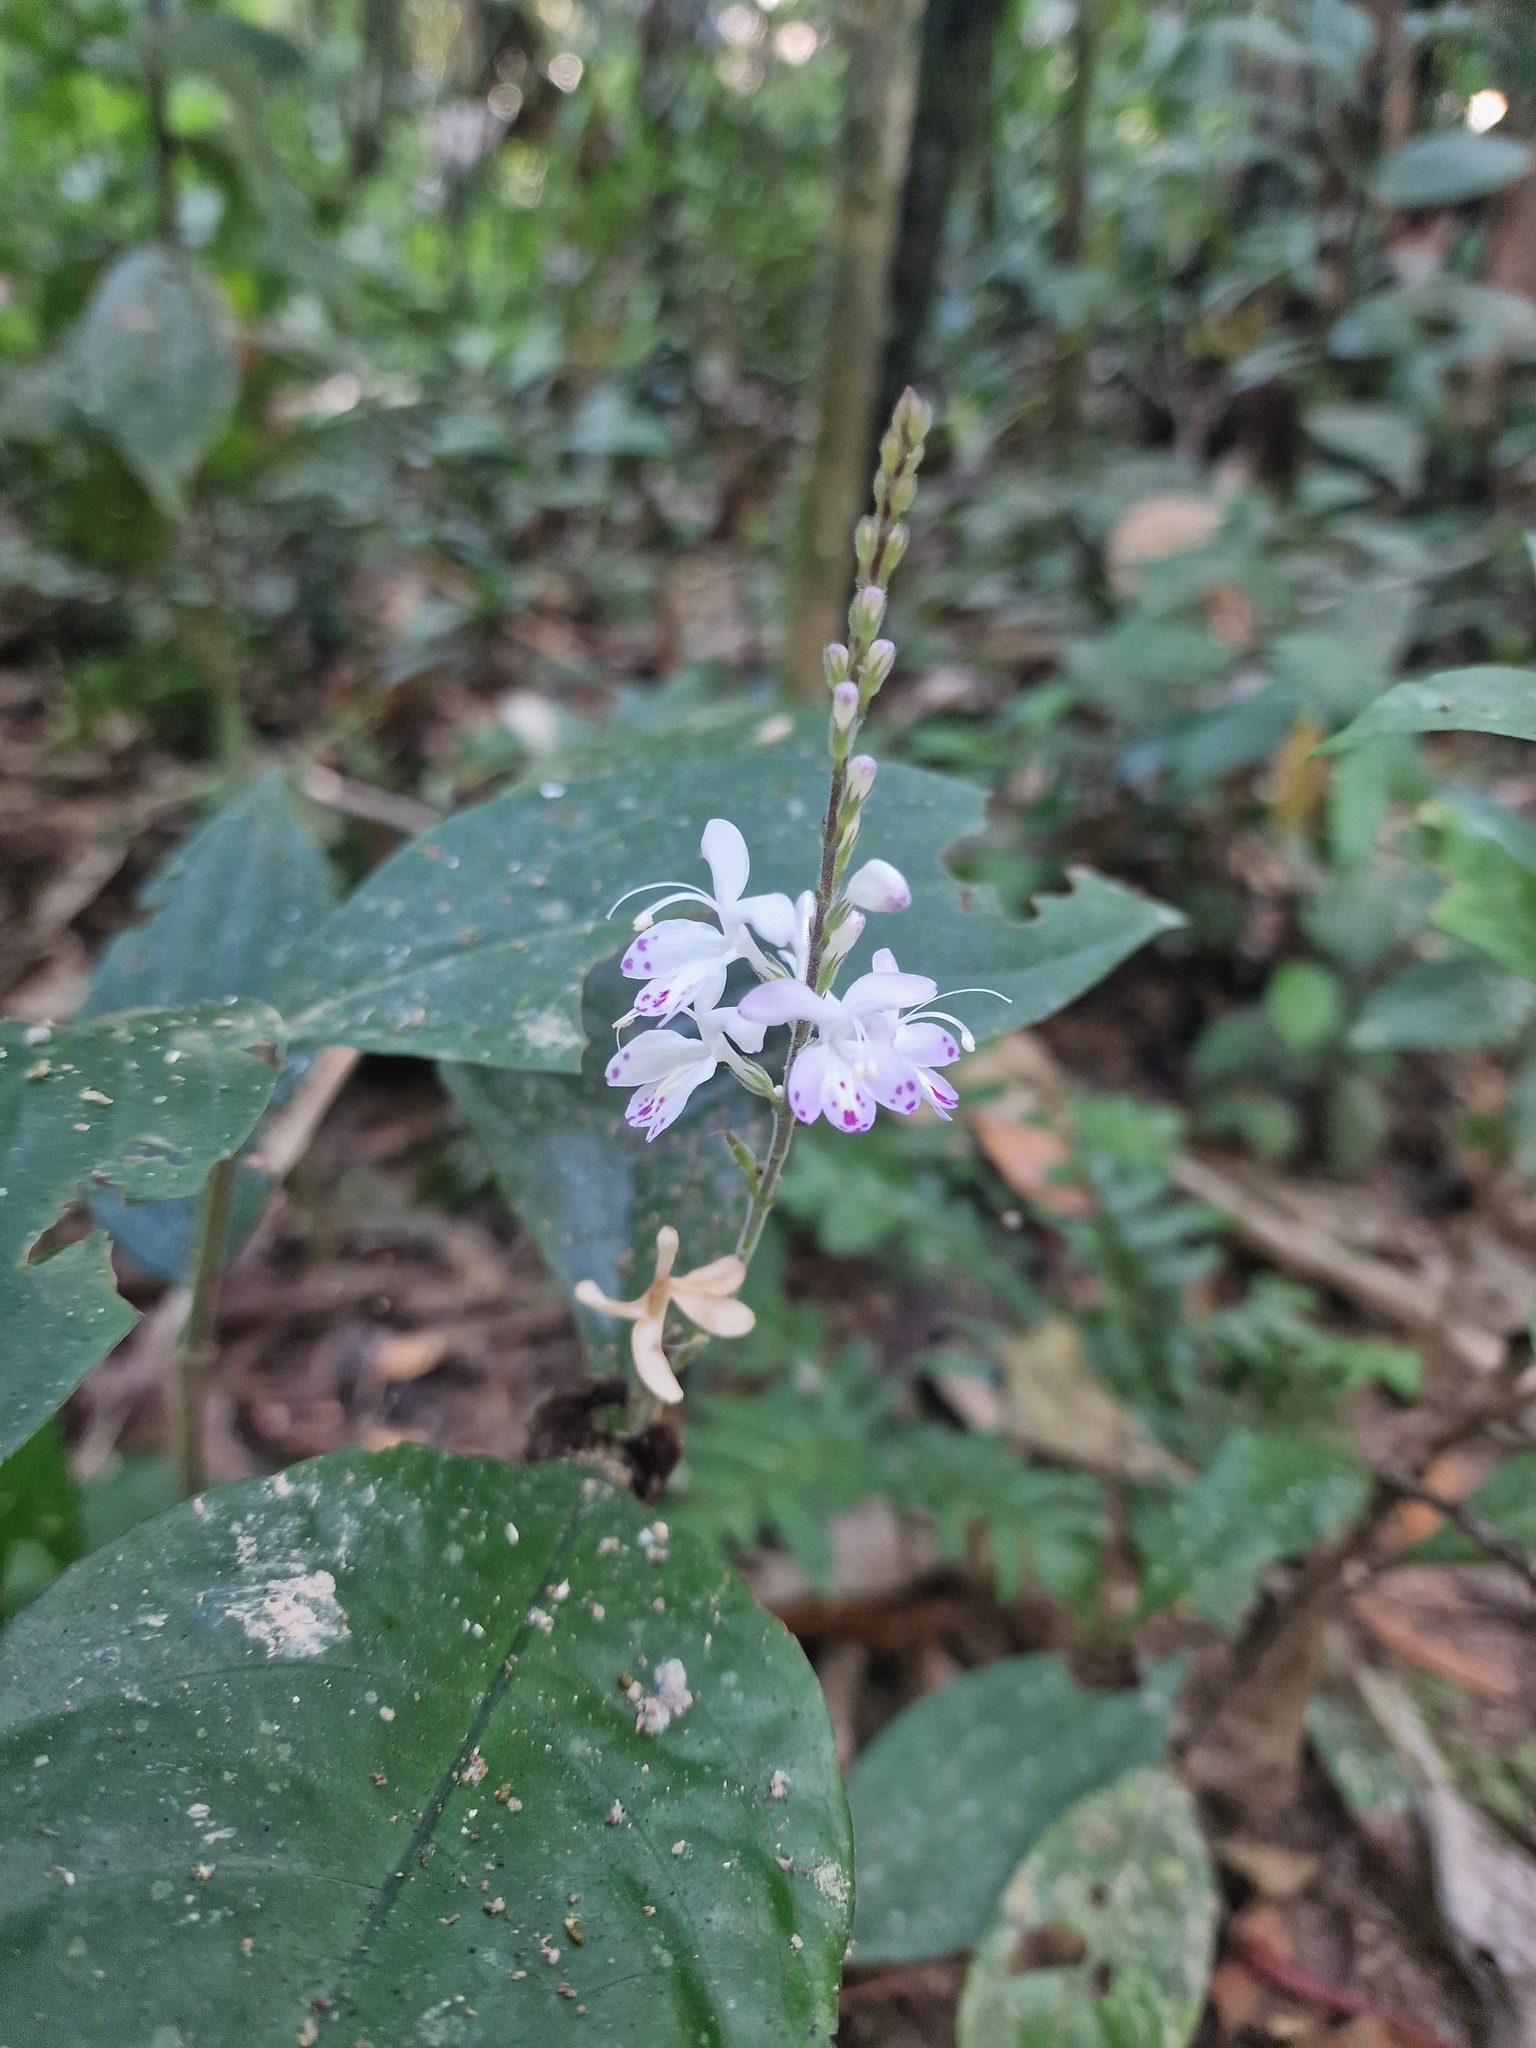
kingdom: Plantae
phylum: Tracheophyta
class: Magnoliopsida
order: Lamiales
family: Acanthaceae
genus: Pulchranthus
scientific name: Pulchranthus adenostachyus
